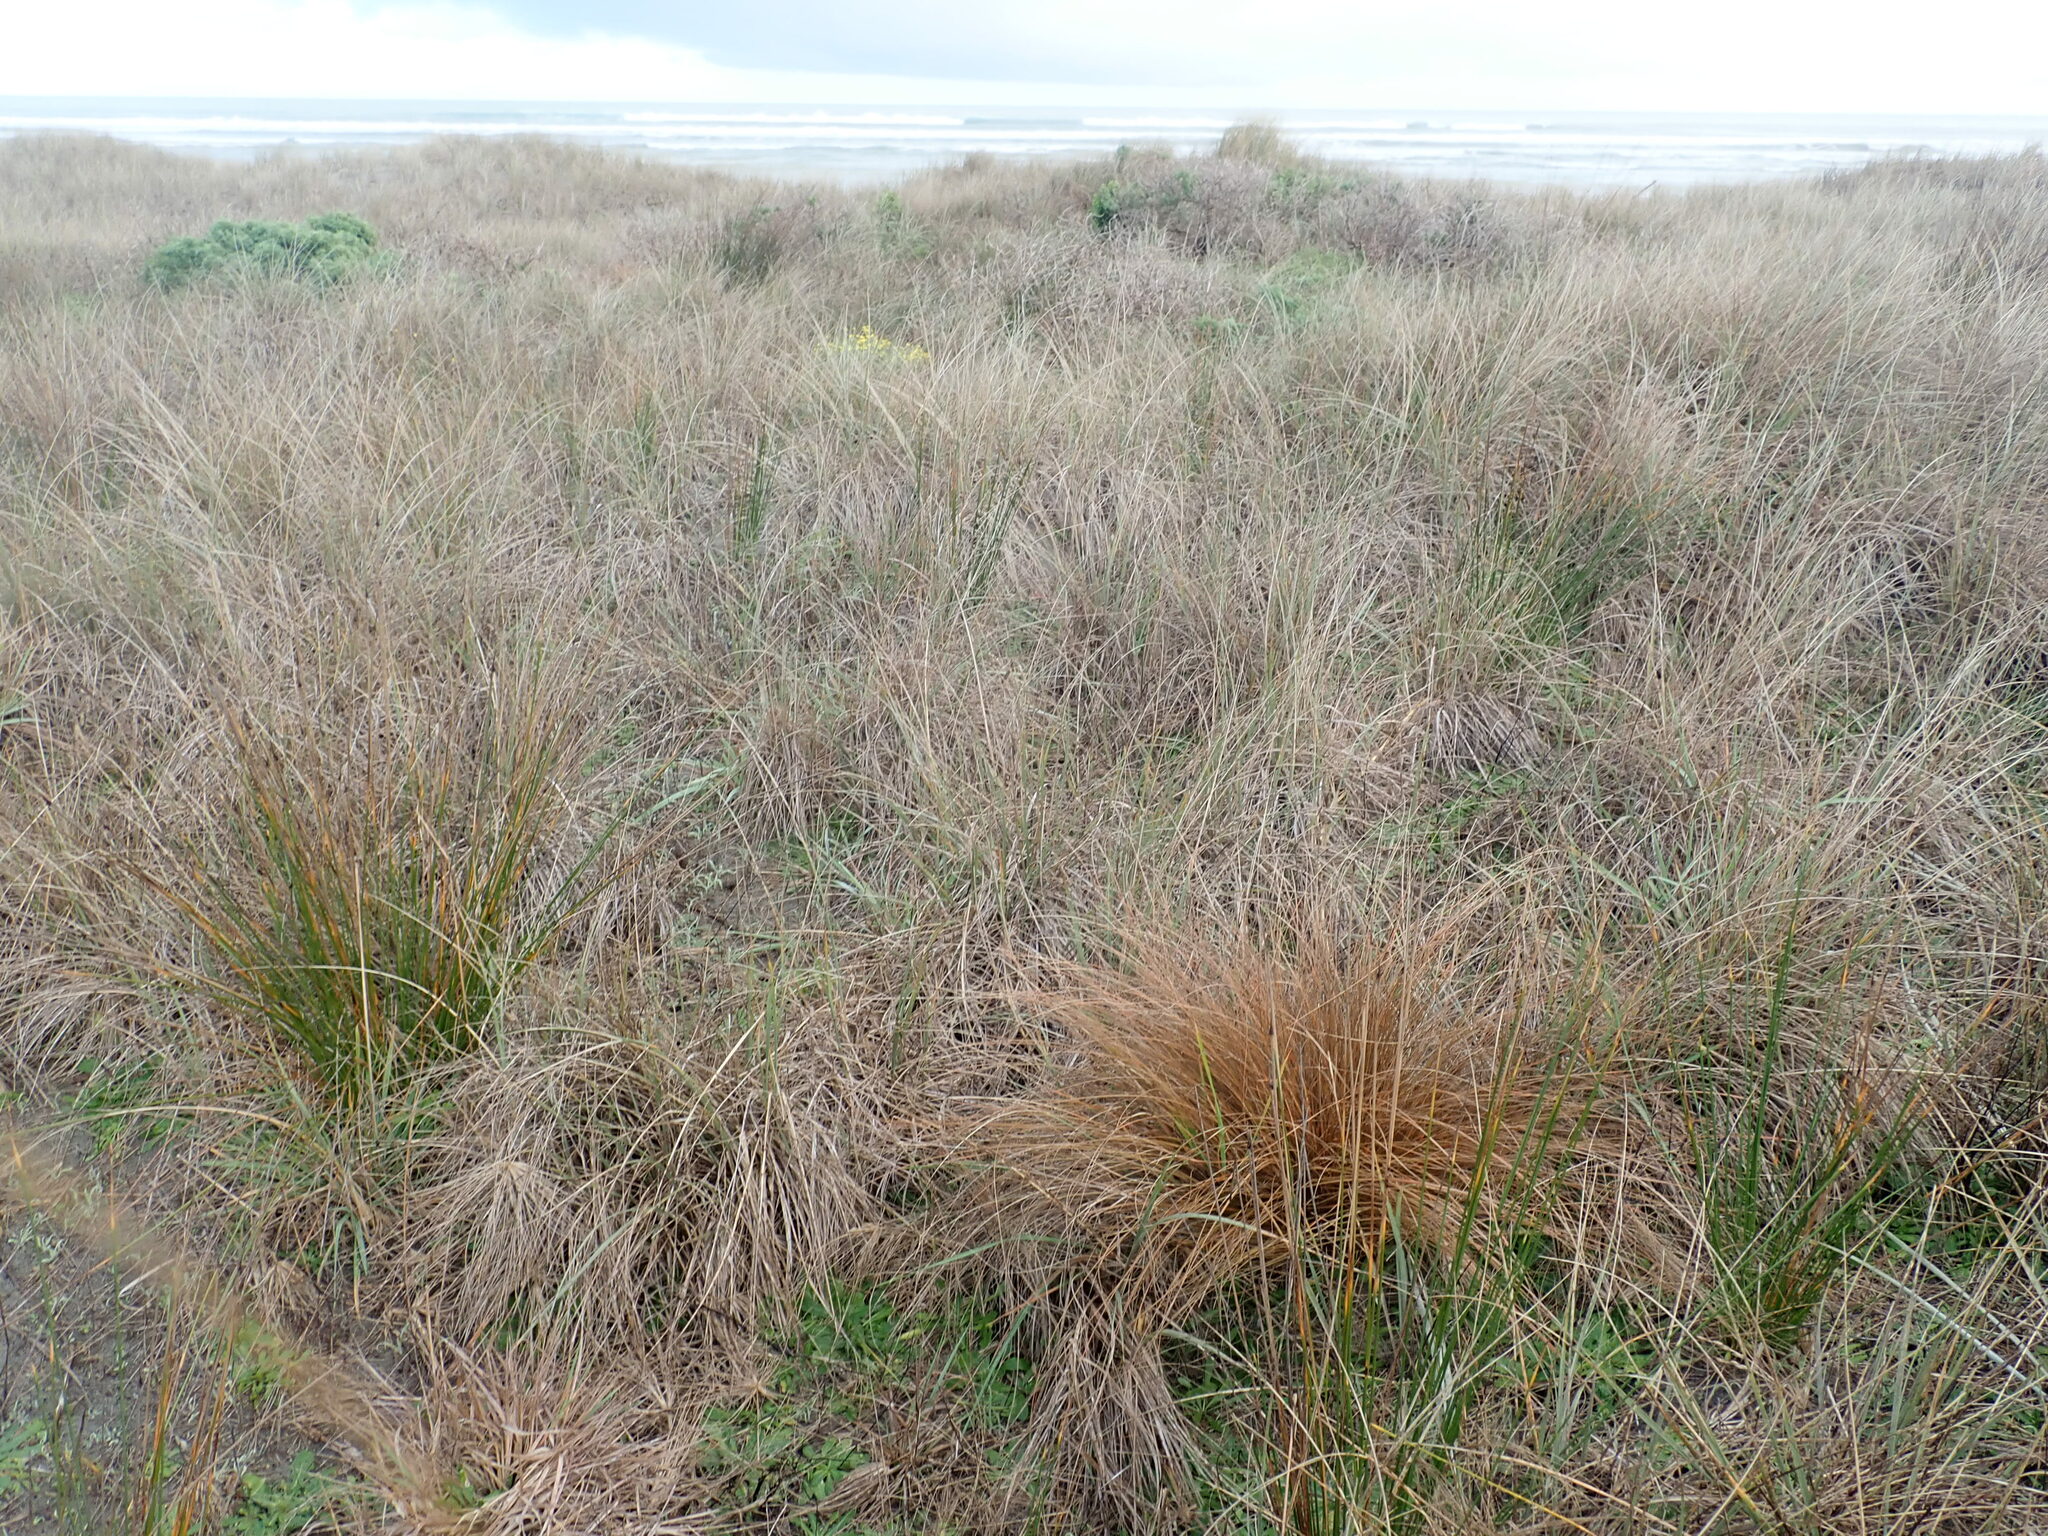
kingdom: Plantae
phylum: Tracheophyta
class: Liliopsida
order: Poales
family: Cyperaceae
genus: Carex
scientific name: Carex testacea
